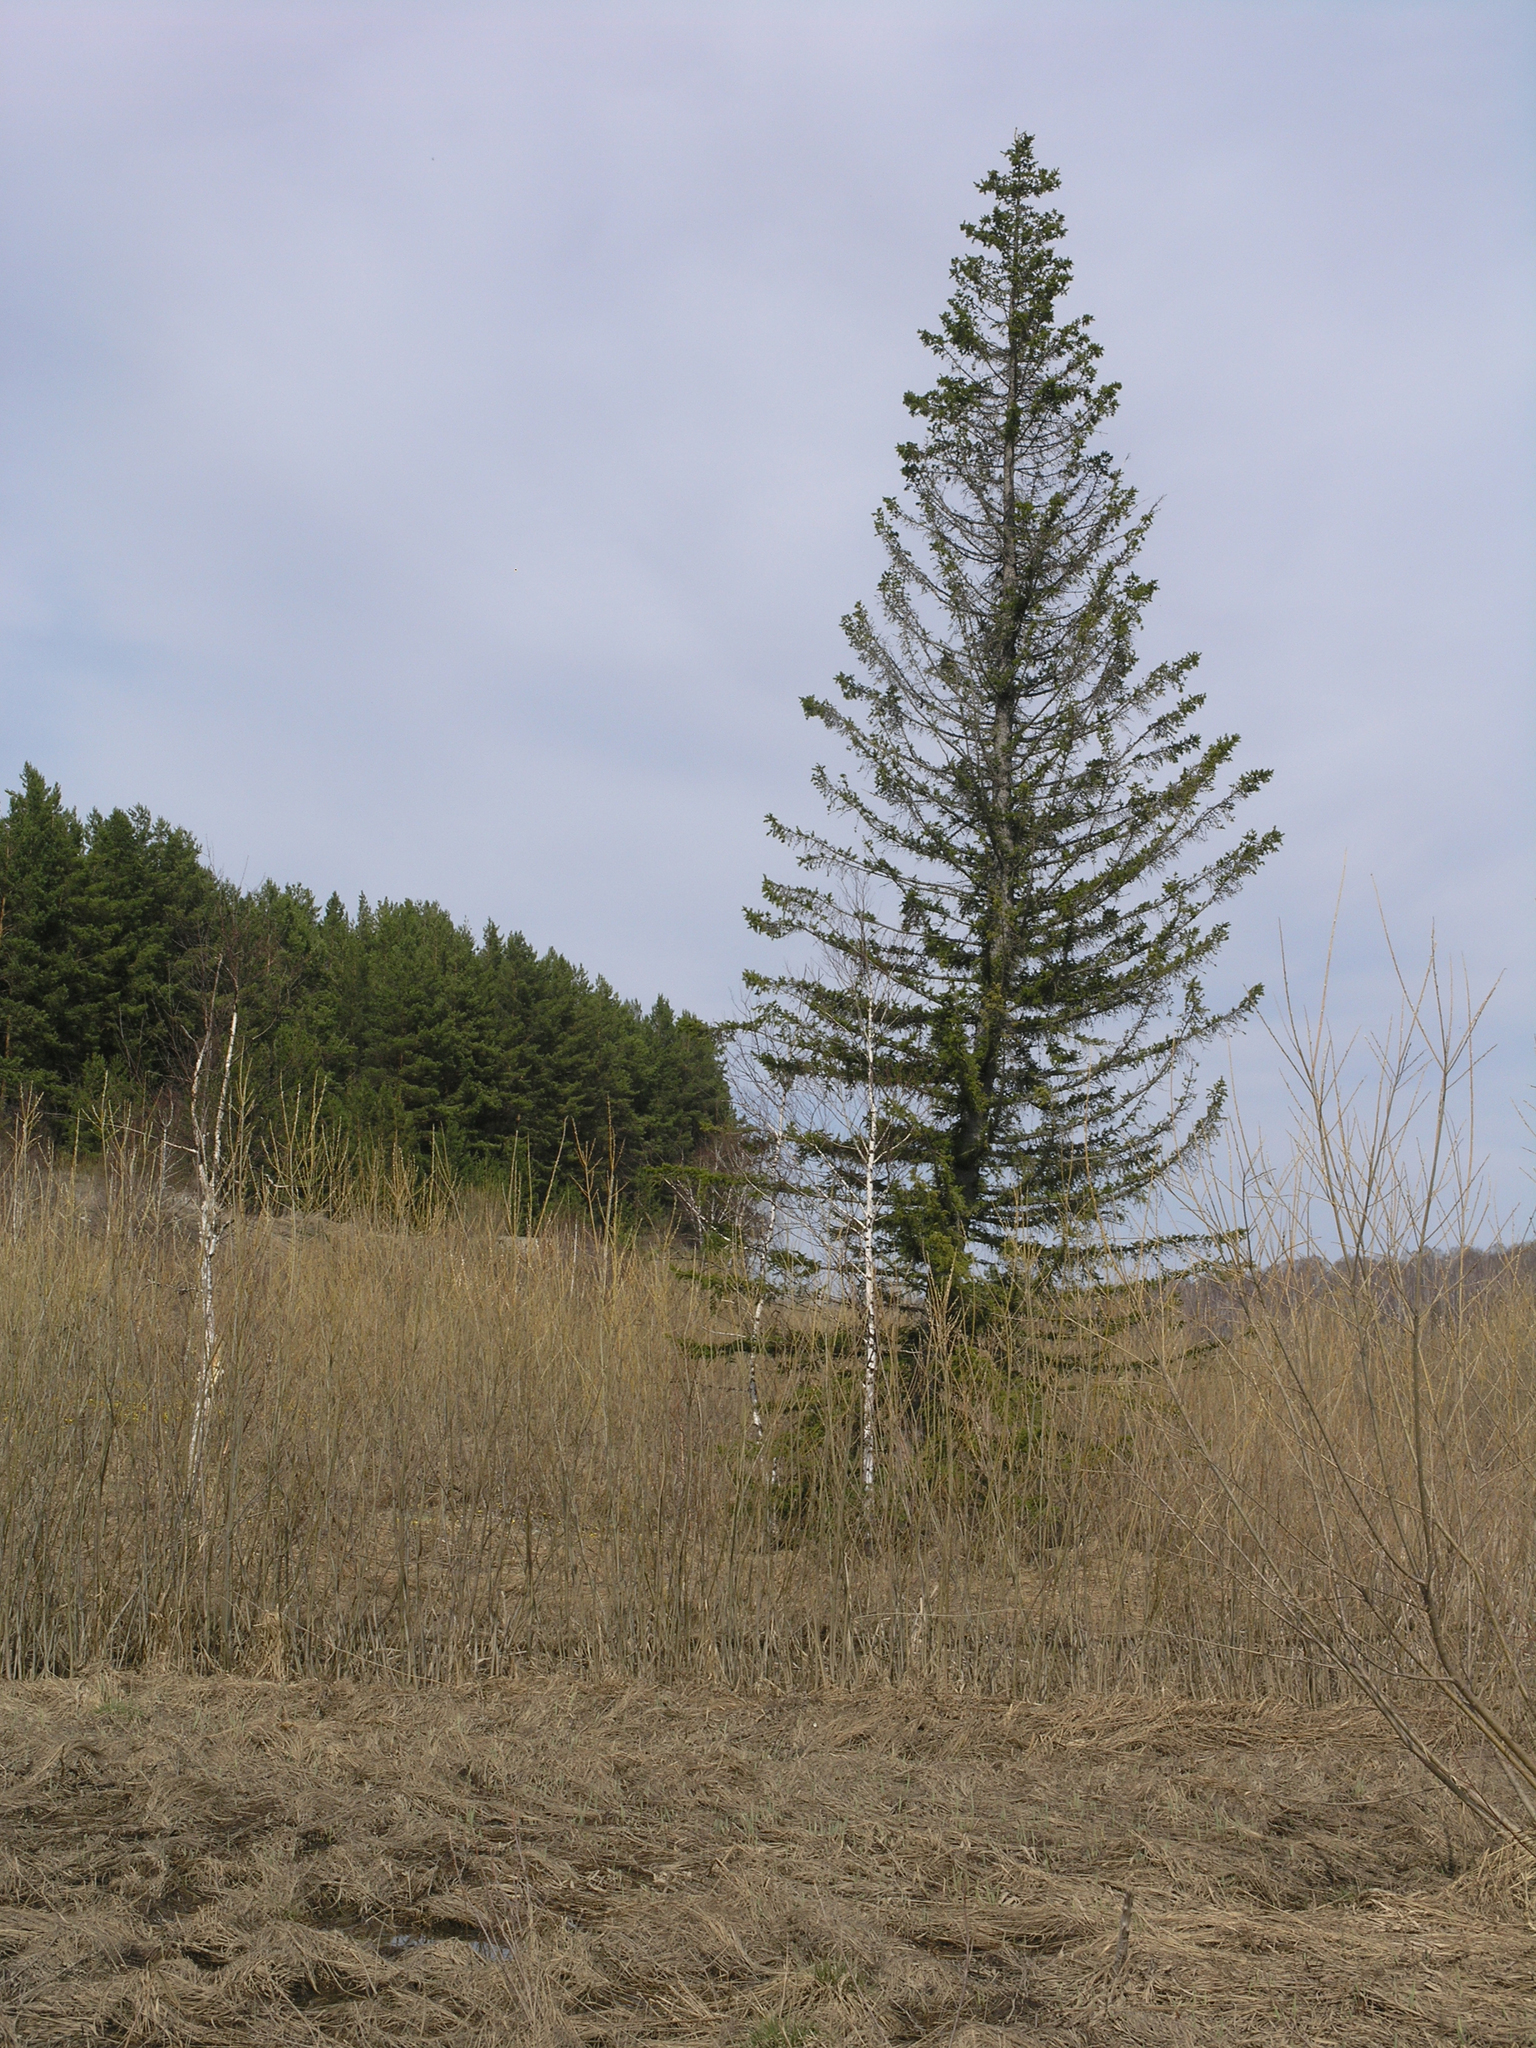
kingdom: Plantae
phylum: Tracheophyta
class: Pinopsida
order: Pinales
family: Pinaceae
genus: Picea
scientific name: Picea obovata
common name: Siberian spruce
